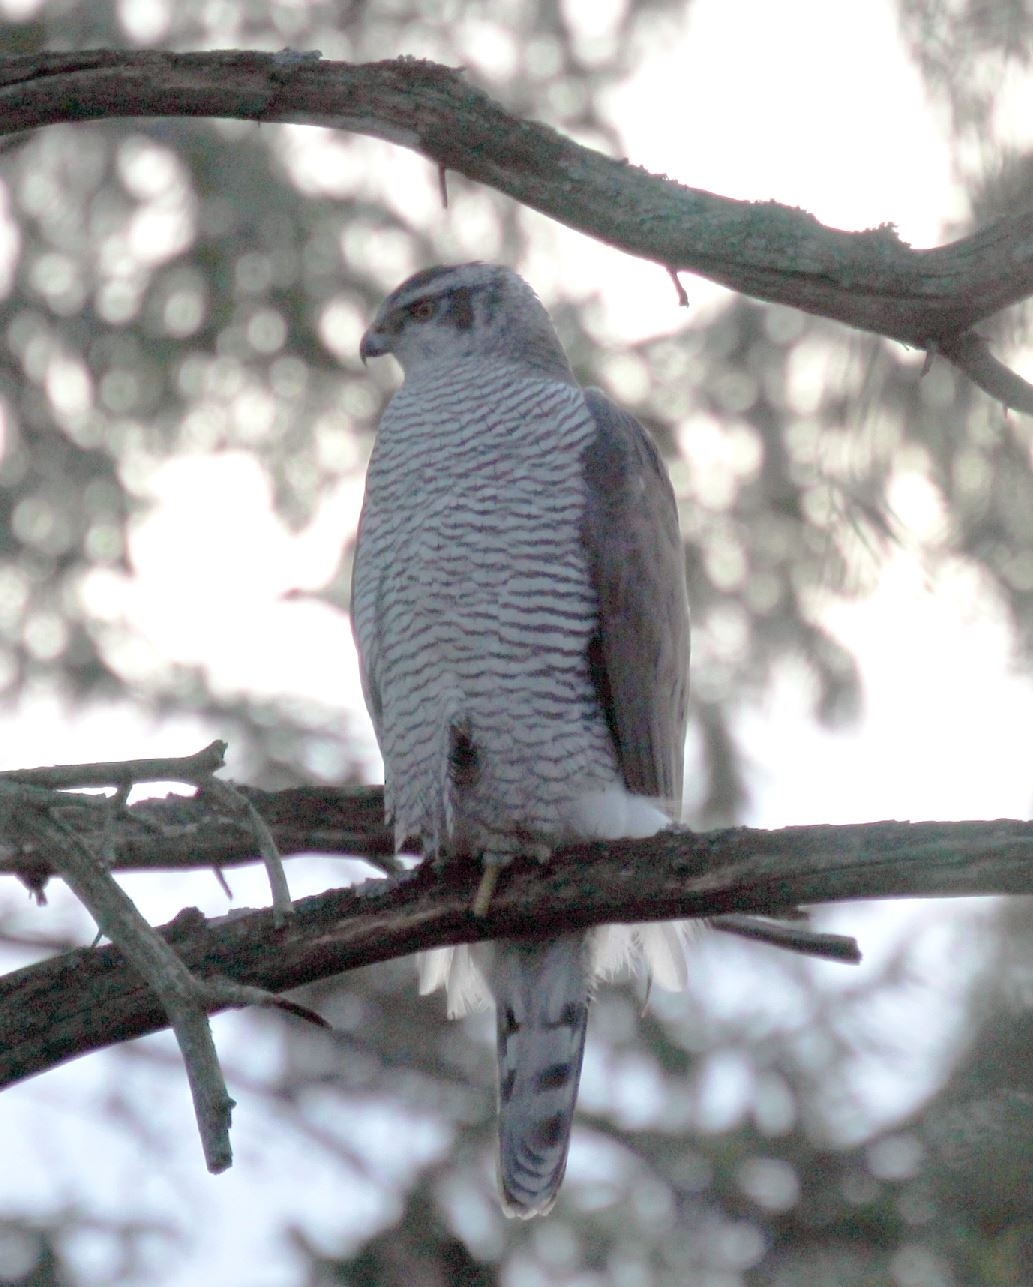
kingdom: Animalia
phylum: Chordata
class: Aves
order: Accipitriformes
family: Accipitridae
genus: Accipiter
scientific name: Accipiter gentilis
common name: Northern goshawk
